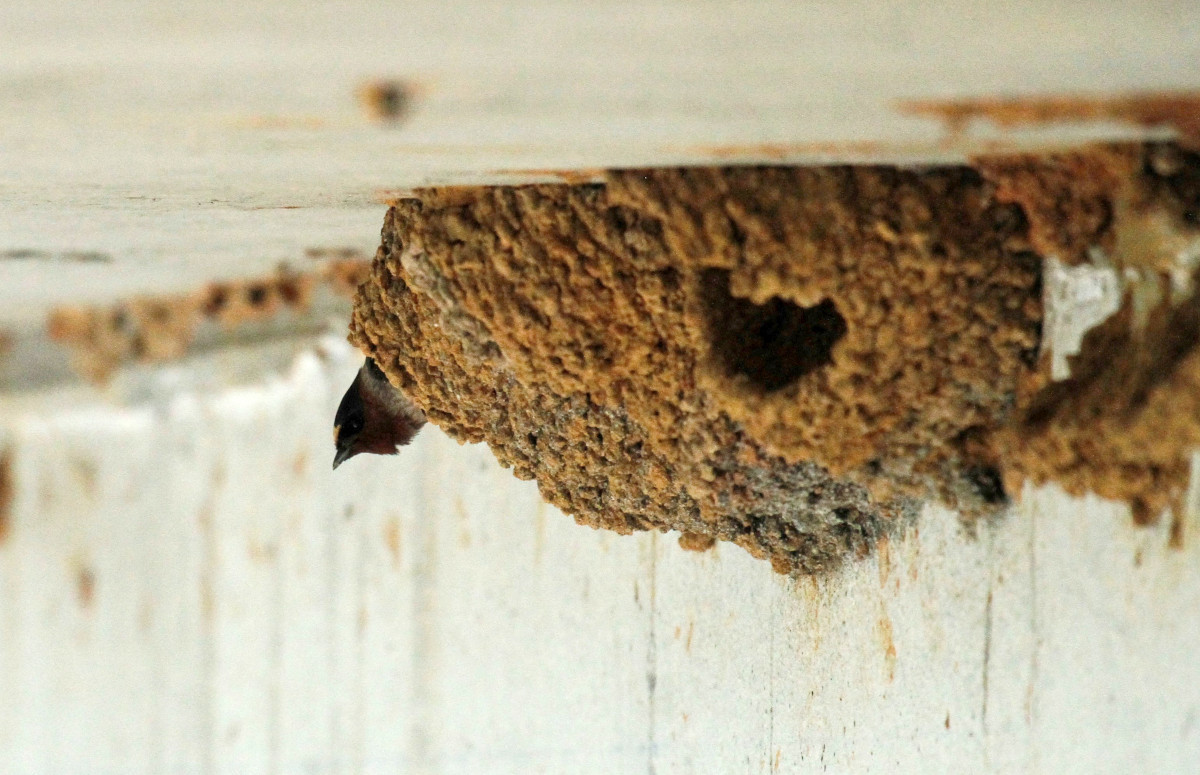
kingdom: Animalia
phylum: Chordata
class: Aves
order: Passeriformes
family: Hirundinidae
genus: Petrochelidon
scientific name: Petrochelidon pyrrhonota
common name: American cliff swallow
